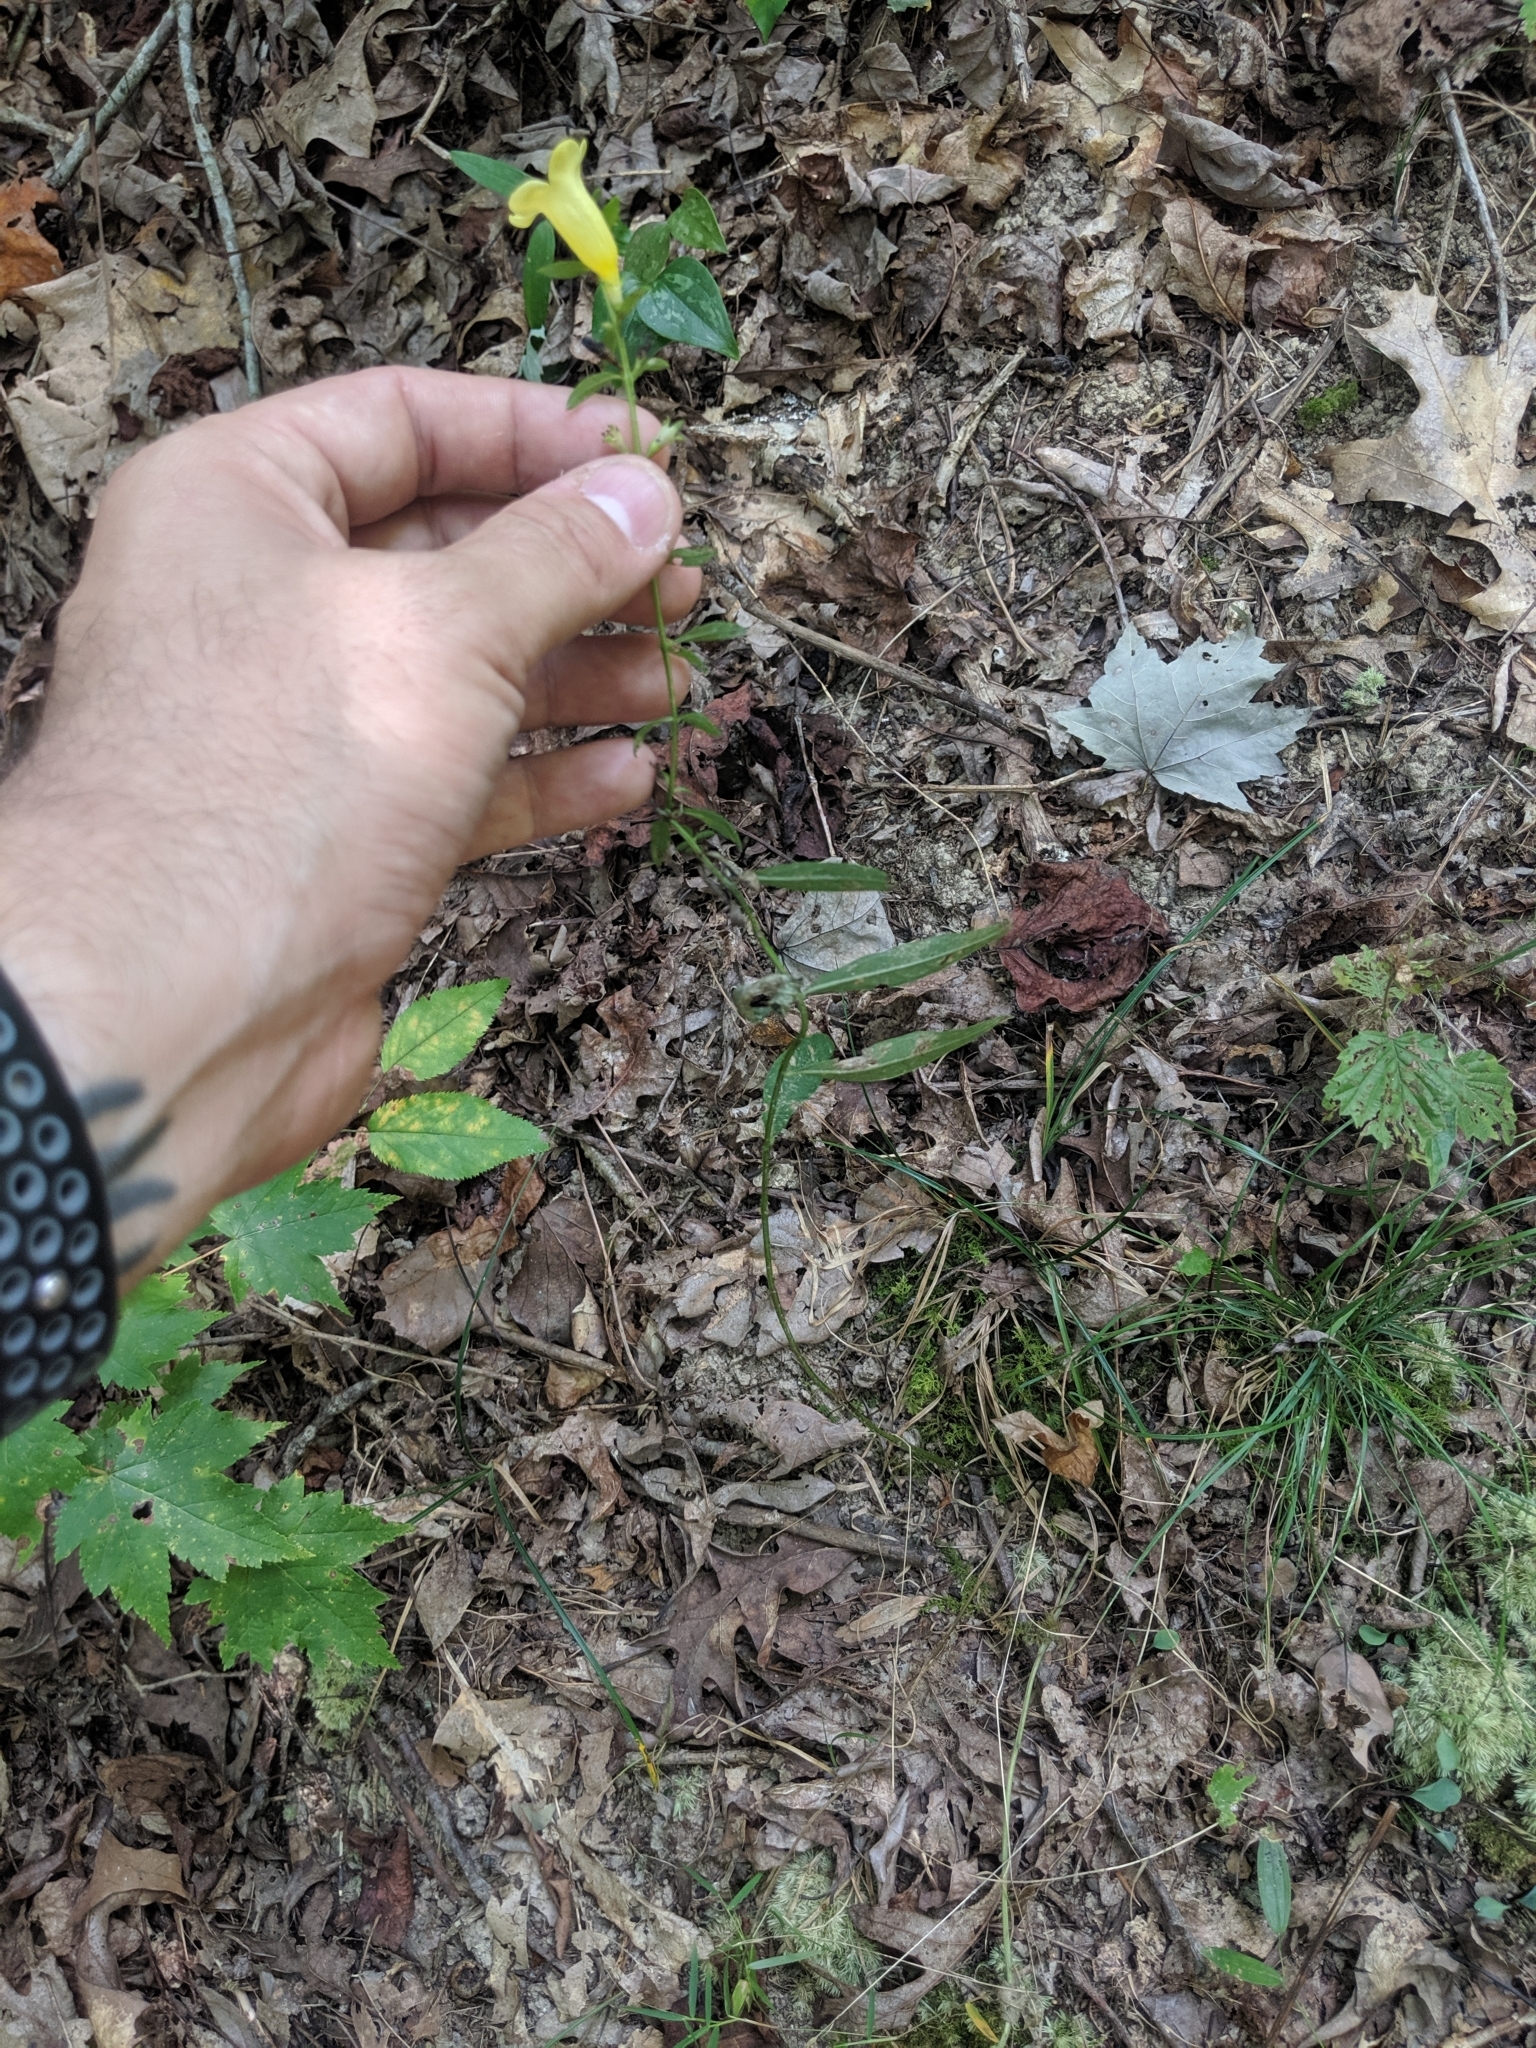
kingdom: Plantae
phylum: Tracheophyta
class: Magnoliopsida
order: Lamiales
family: Orobanchaceae
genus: Aureolaria
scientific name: Aureolaria flava
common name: Smooth false foxglove
